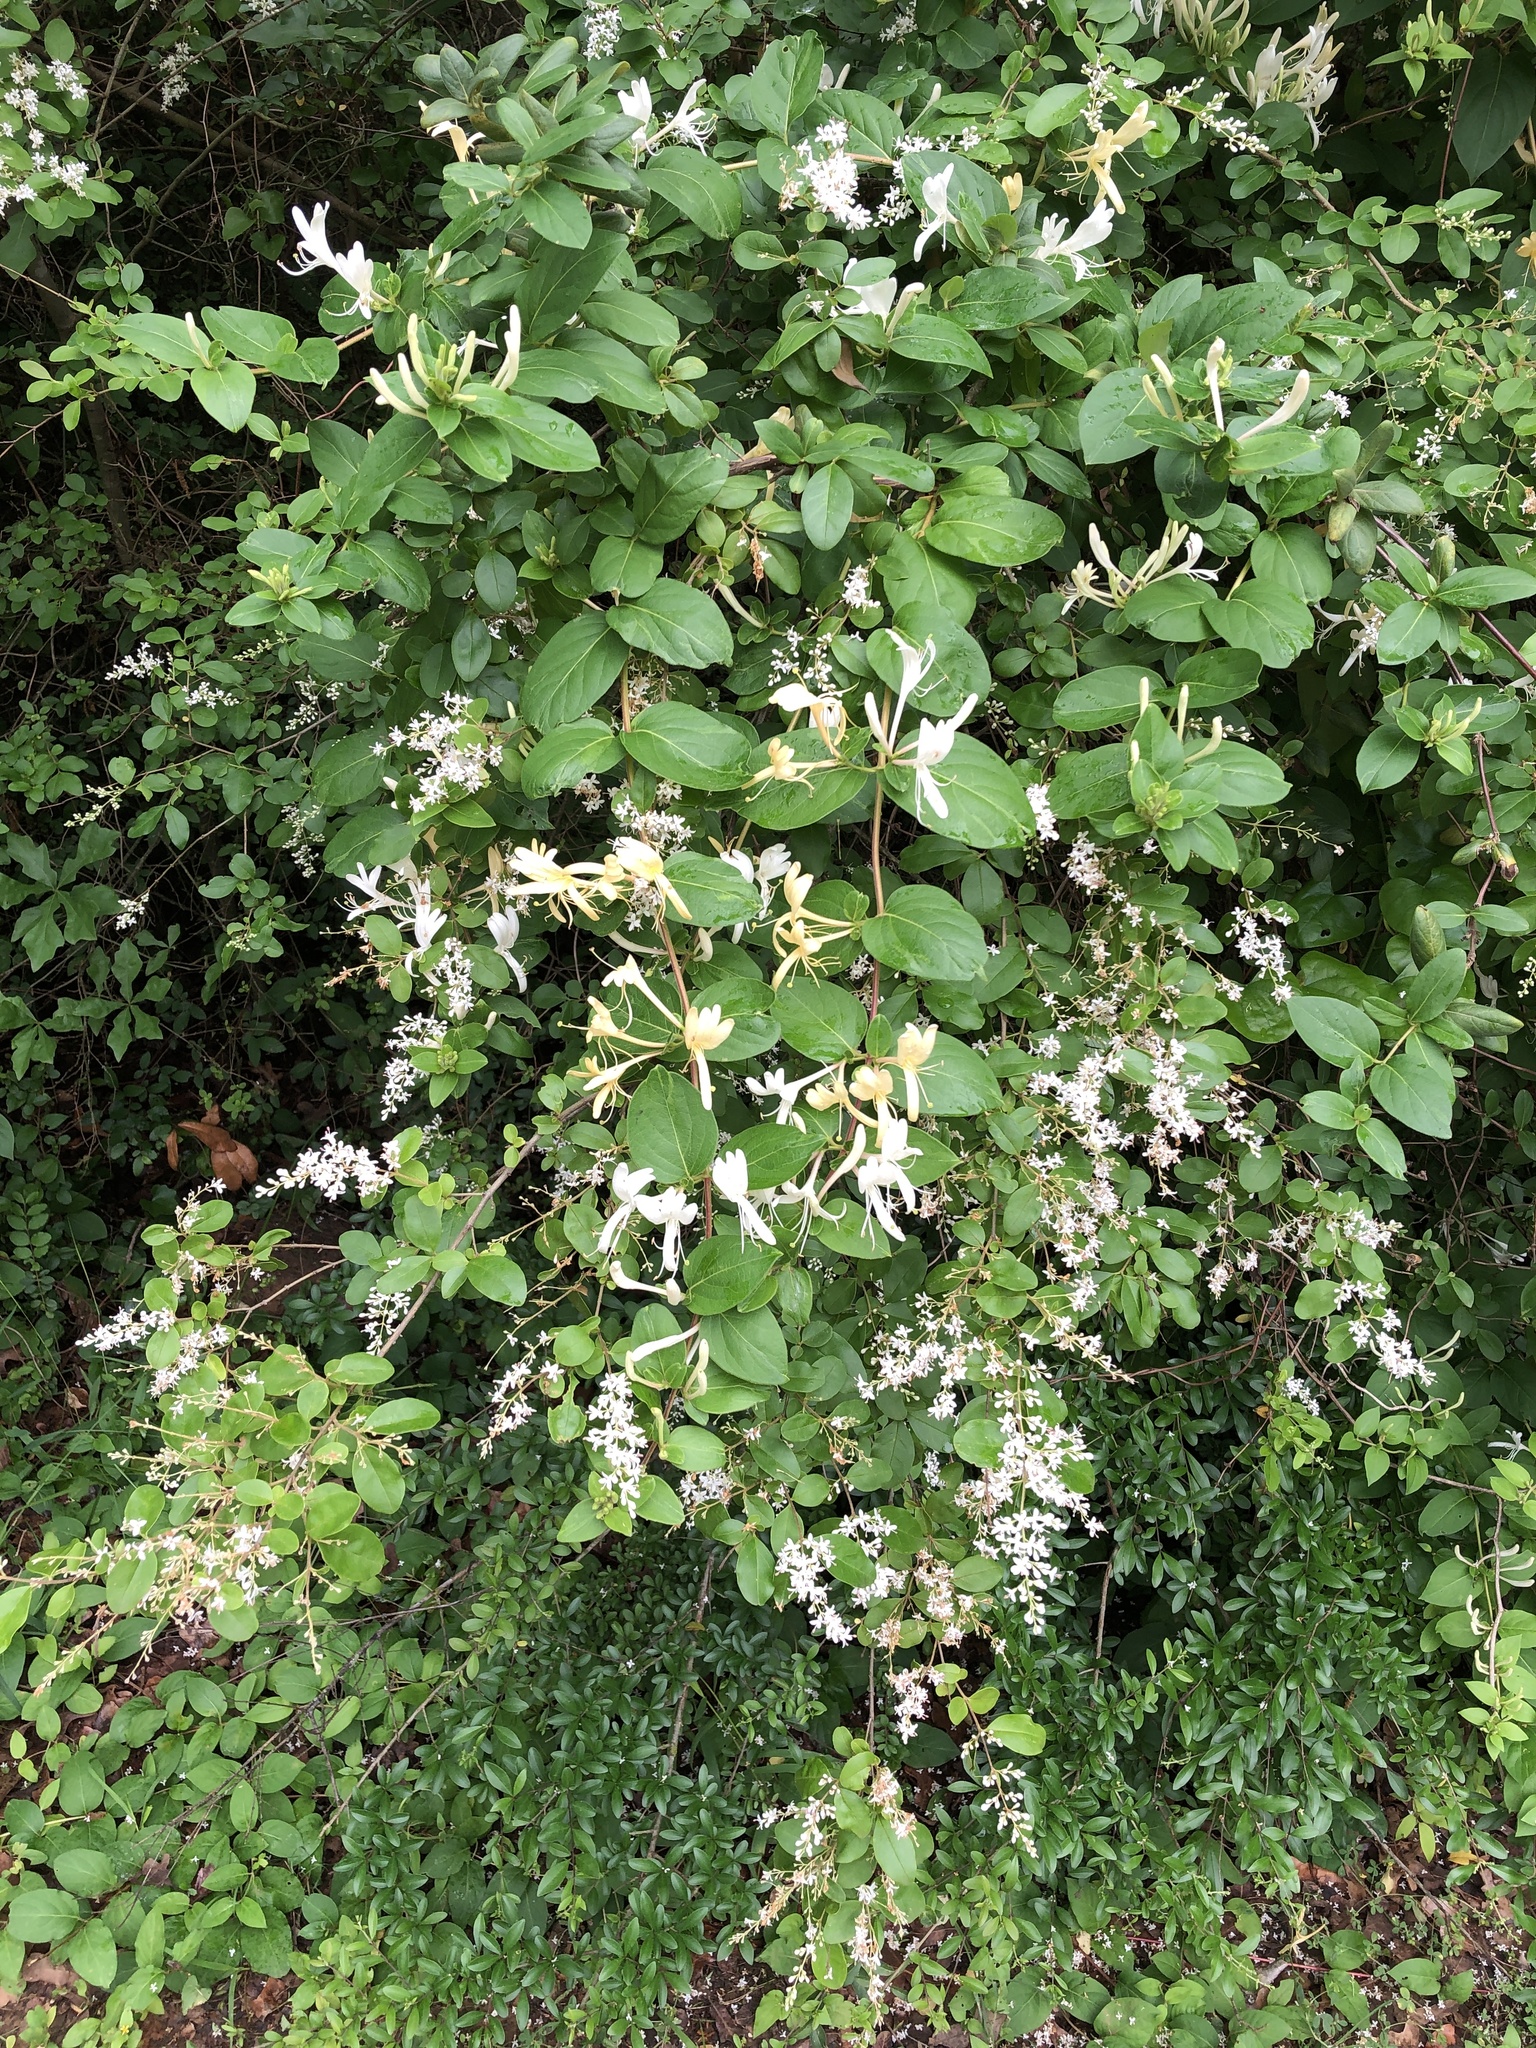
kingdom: Plantae
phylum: Tracheophyta
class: Magnoliopsida
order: Dipsacales
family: Caprifoliaceae
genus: Lonicera
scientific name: Lonicera japonica
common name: Japanese honeysuckle
